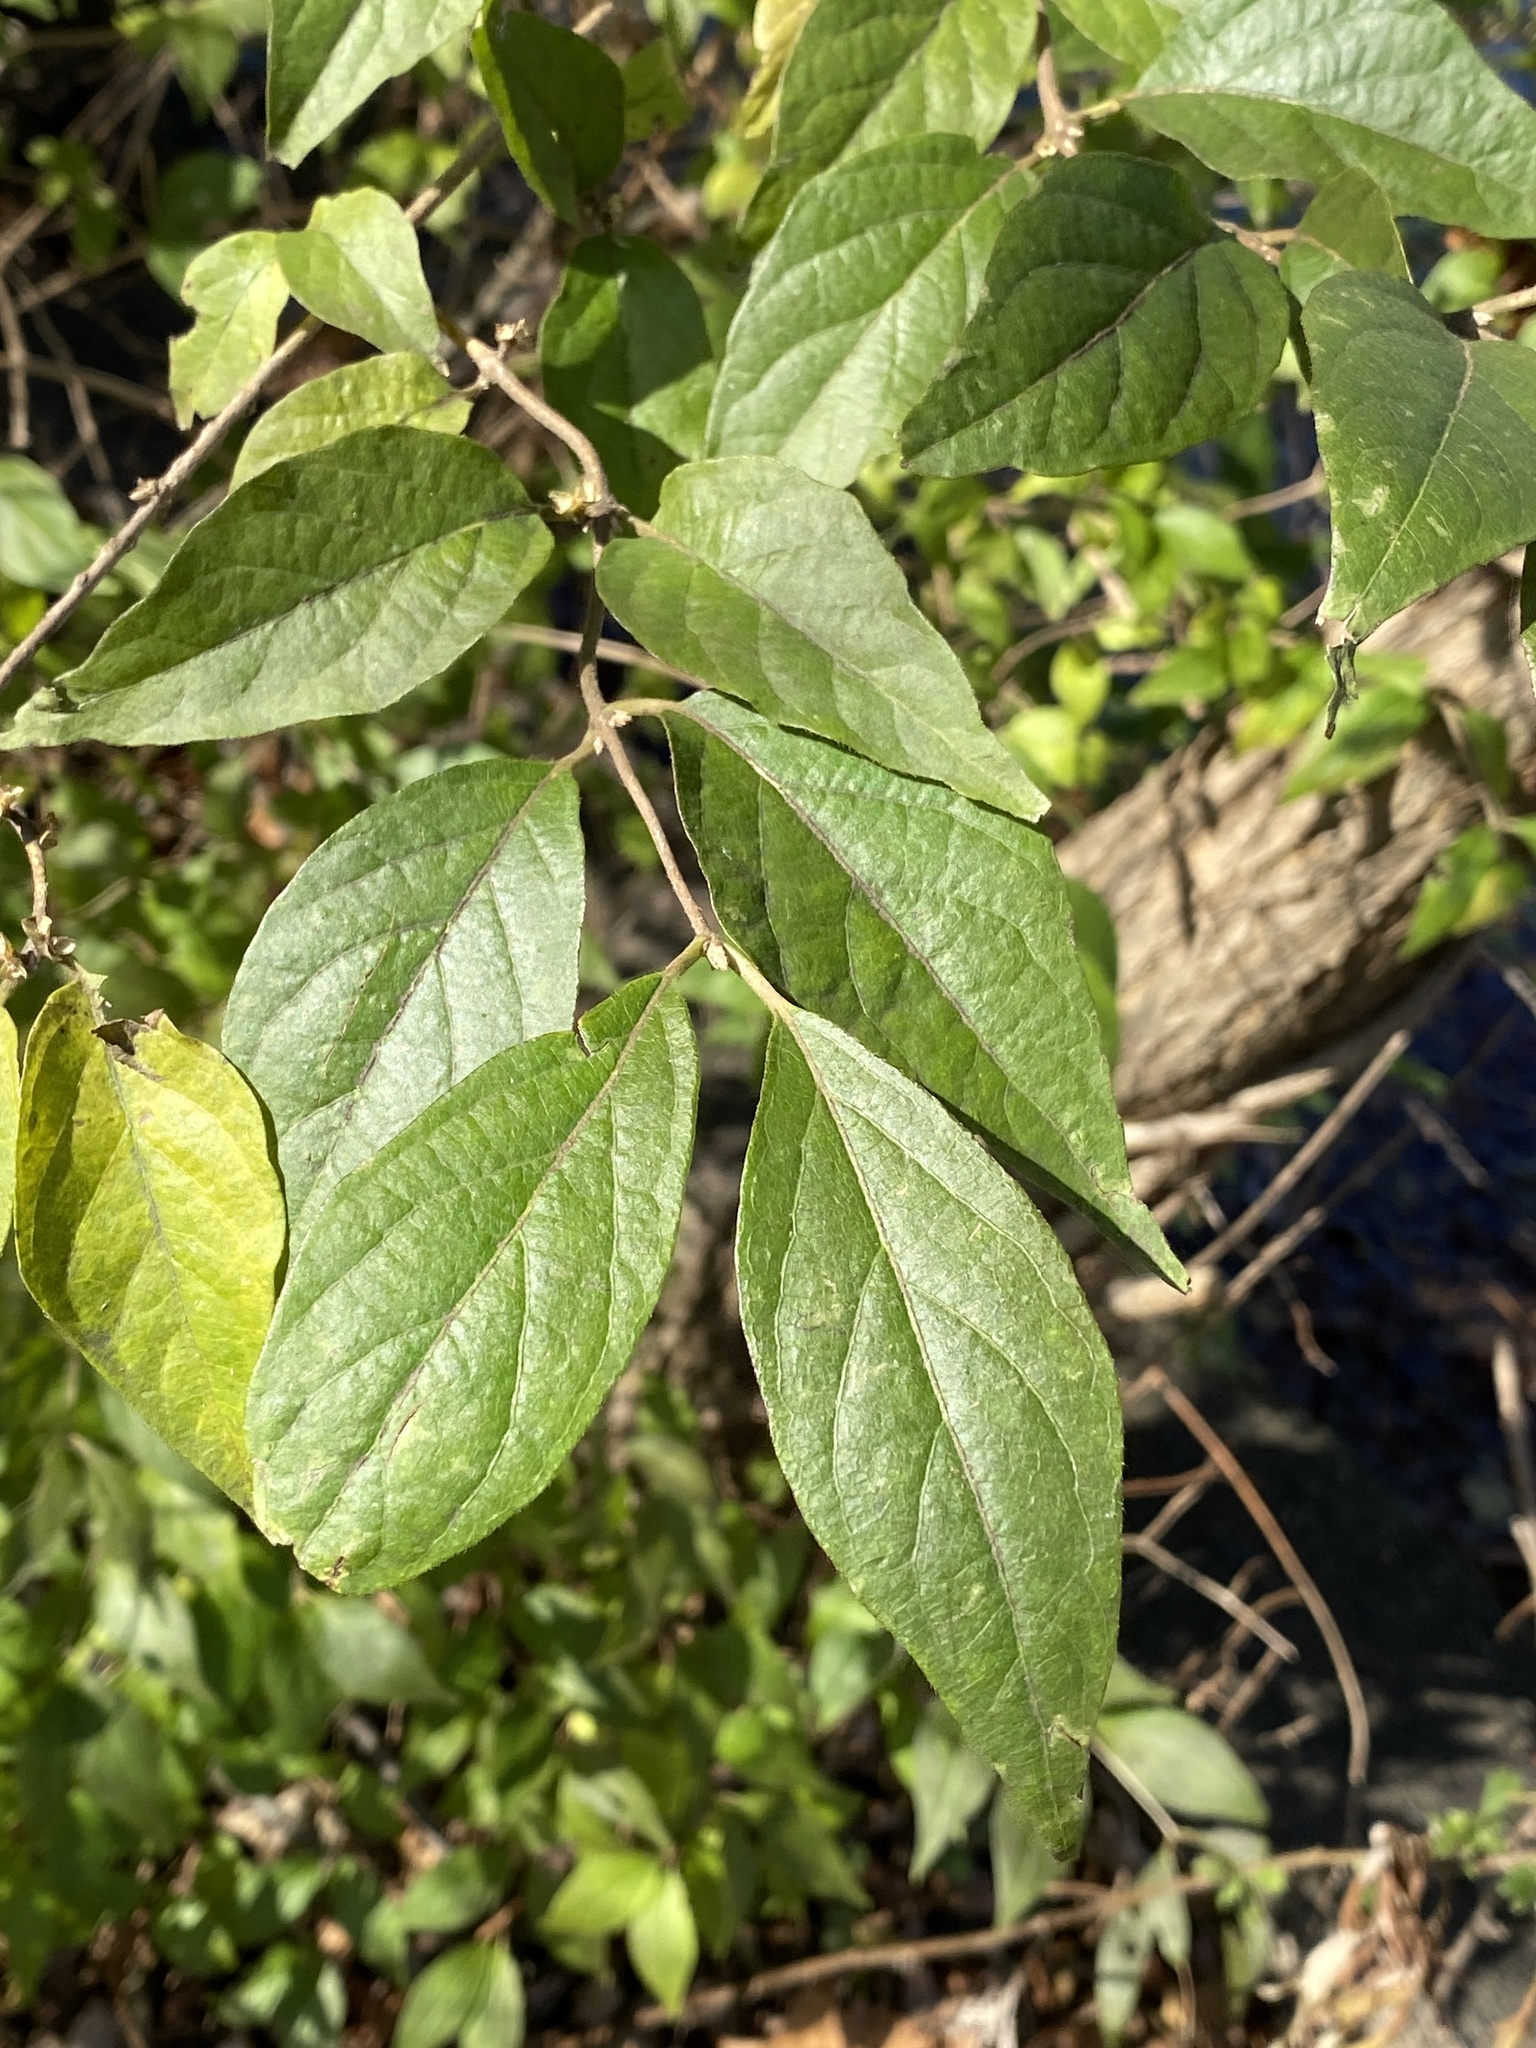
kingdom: Plantae
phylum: Tracheophyta
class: Magnoliopsida
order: Dipsacales
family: Caprifoliaceae
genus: Lonicera
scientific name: Lonicera maackii
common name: Amur honeysuckle
